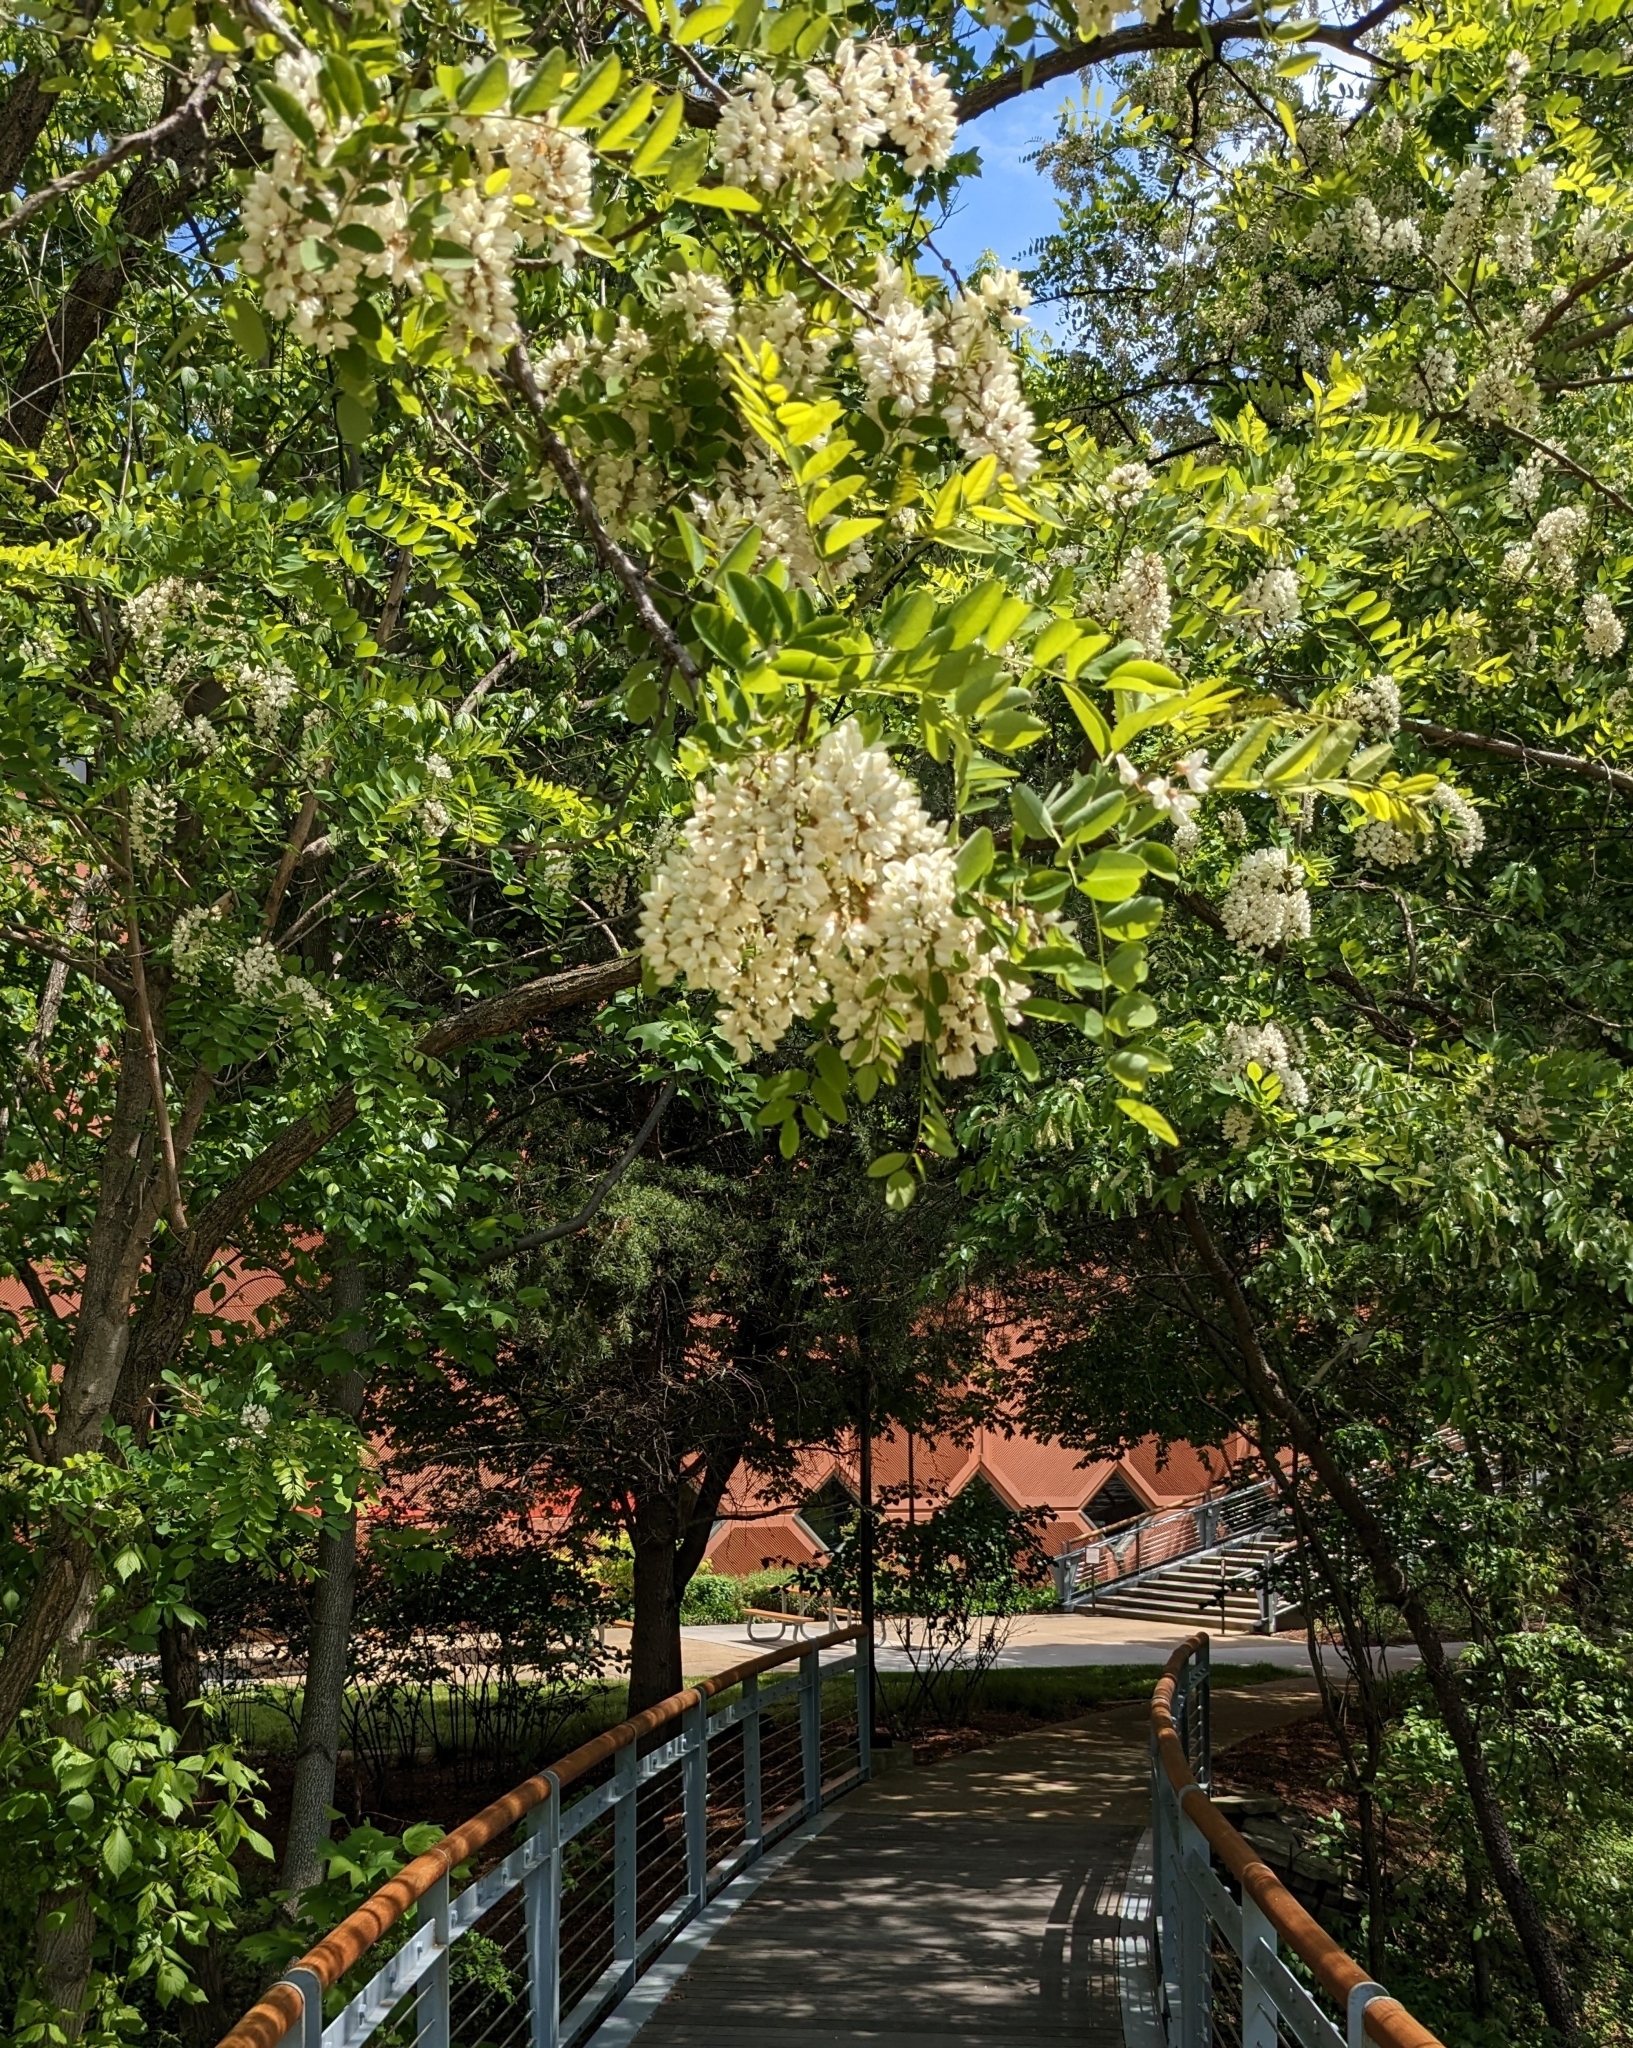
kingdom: Plantae
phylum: Tracheophyta
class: Magnoliopsida
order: Fabales
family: Fabaceae
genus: Robinia
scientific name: Robinia pseudoacacia
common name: Black locust
